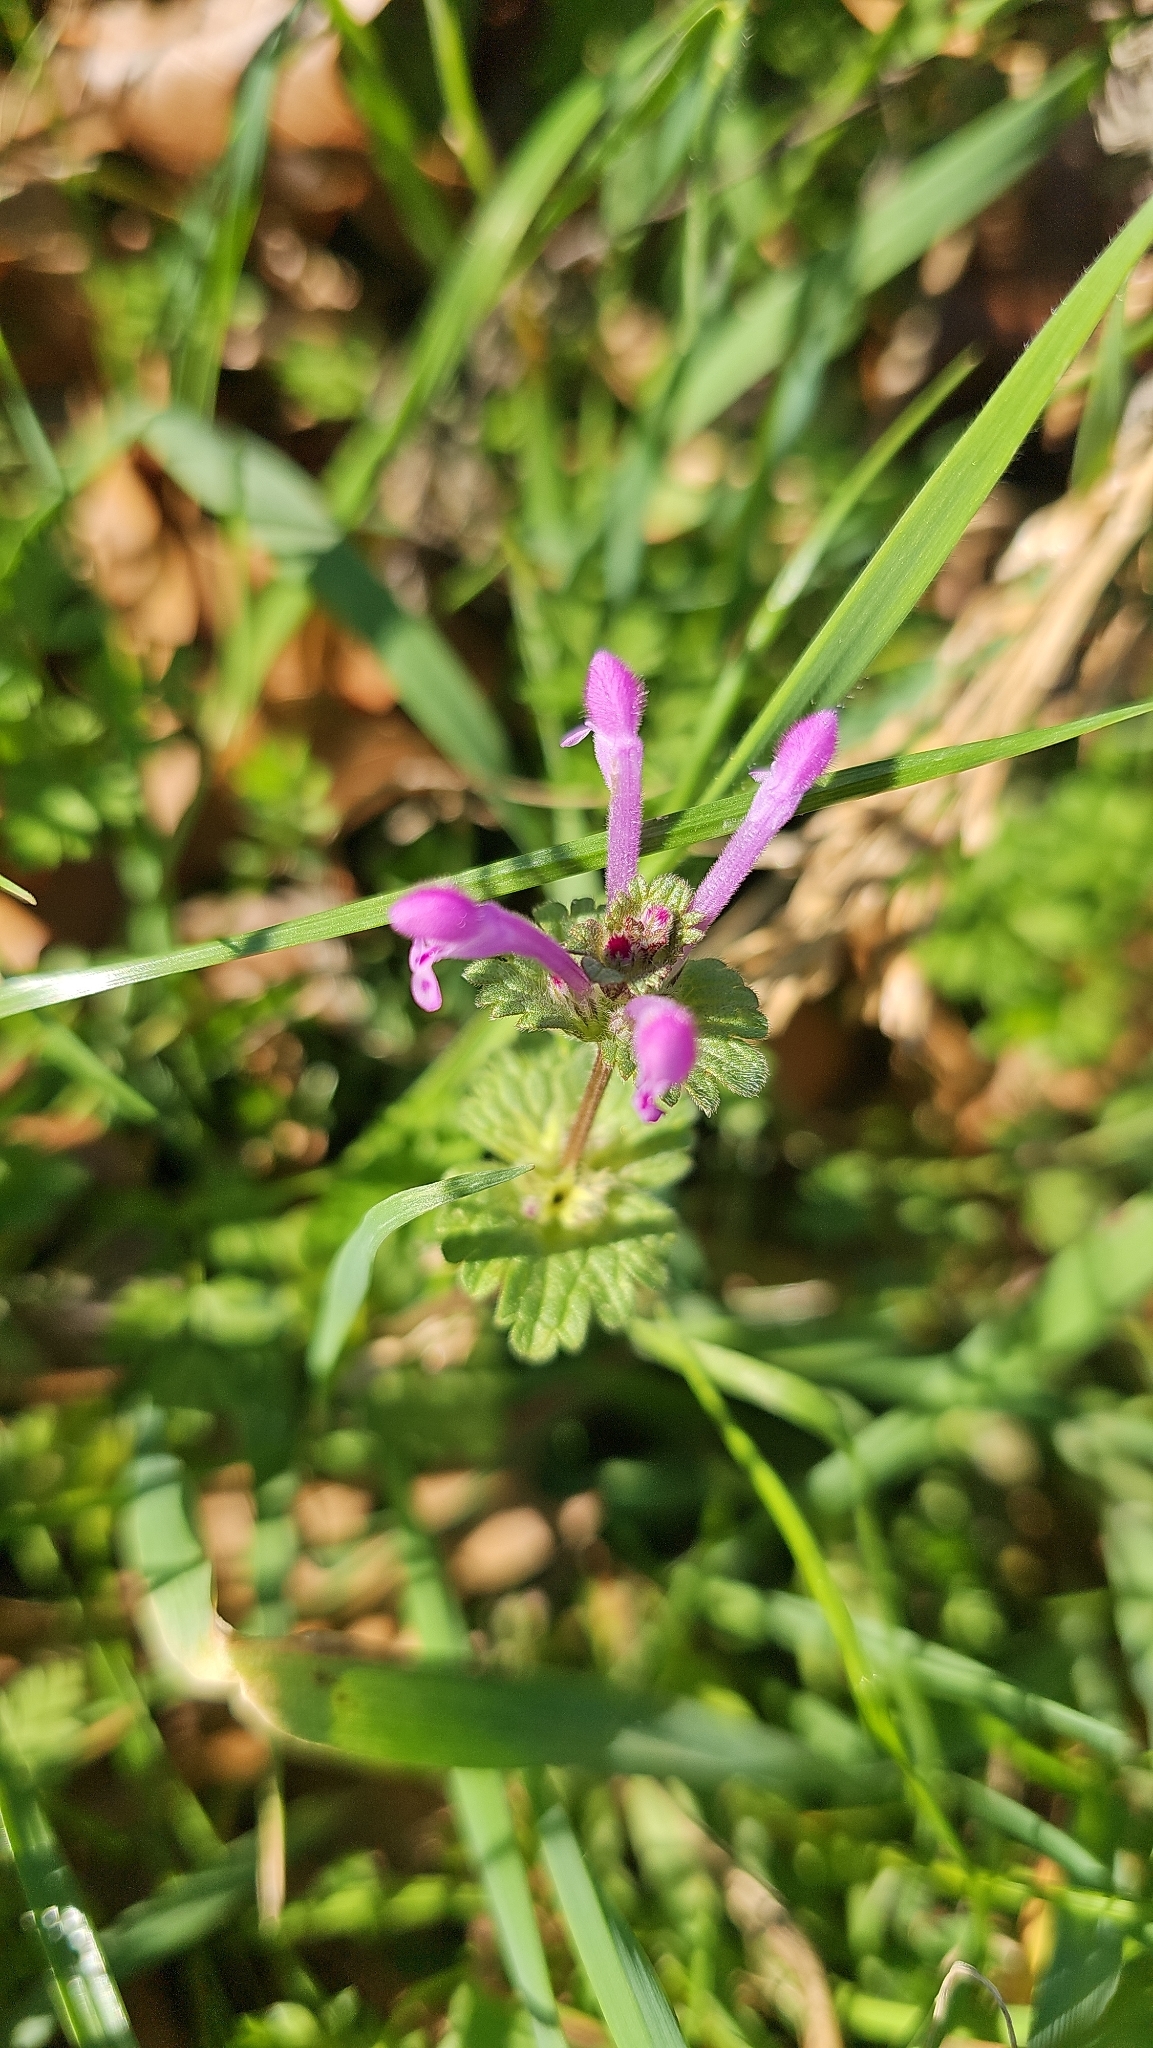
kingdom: Plantae
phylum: Tracheophyta
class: Magnoliopsida
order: Lamiales
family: Lamiaceae
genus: Lamium
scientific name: Lamium amplexicaule
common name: Henbit dead-nettle
